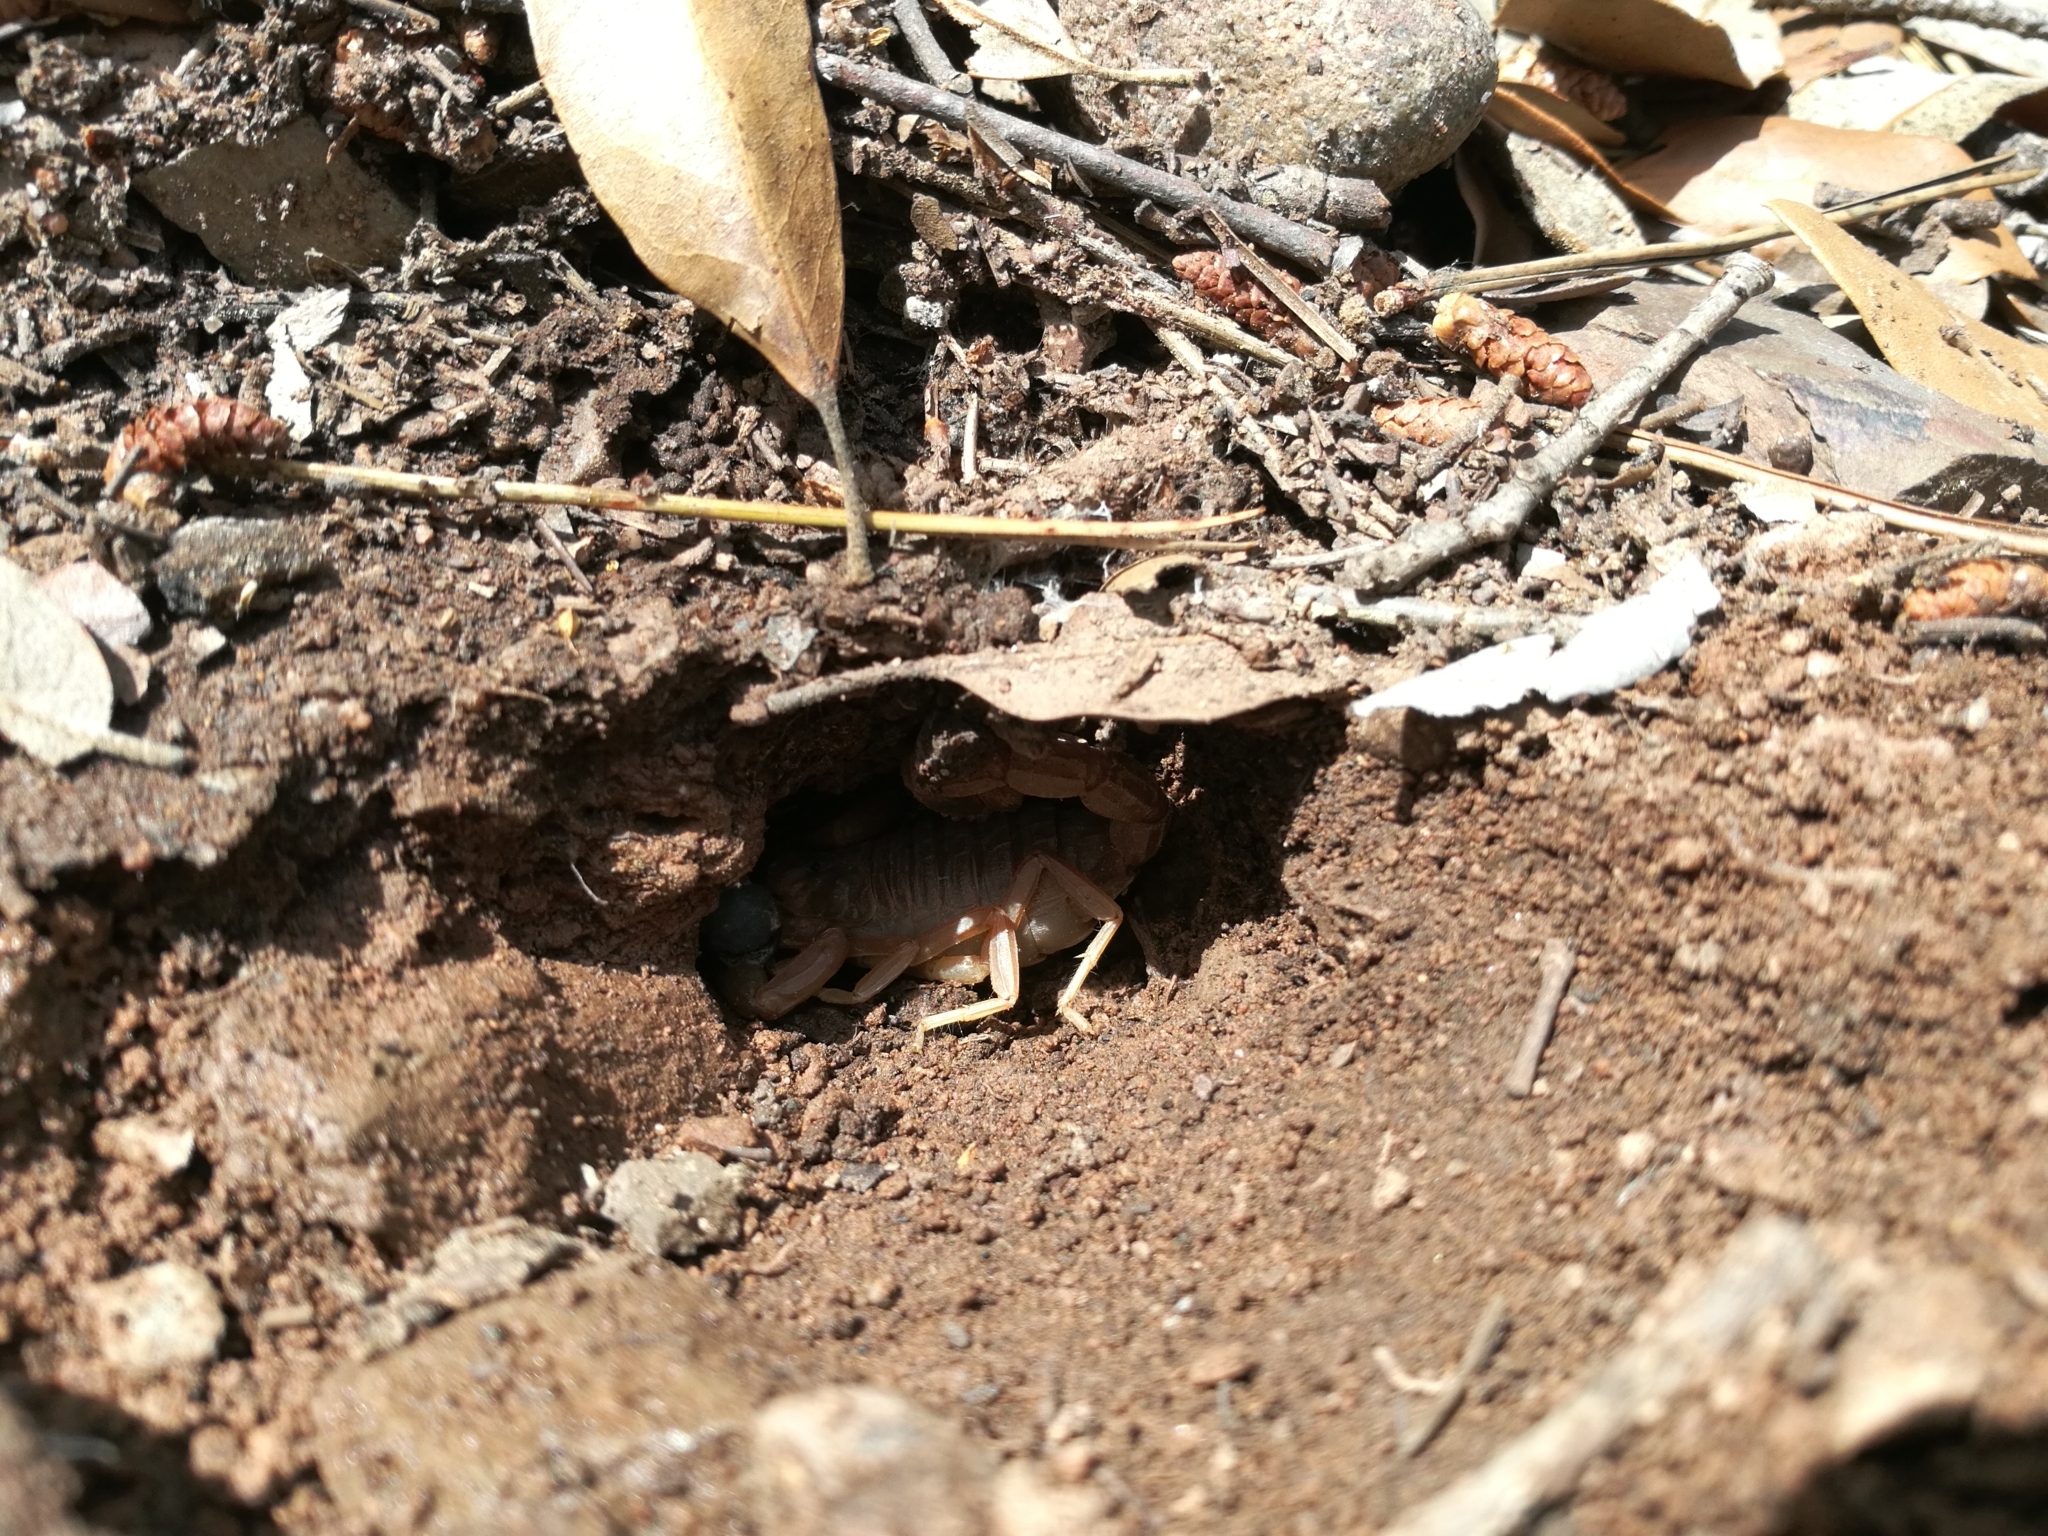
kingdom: Animalia
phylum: Arthropoda
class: Arachnida
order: Scorpiones
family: Buthidae
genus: Buthus
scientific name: Buthus occitanus
